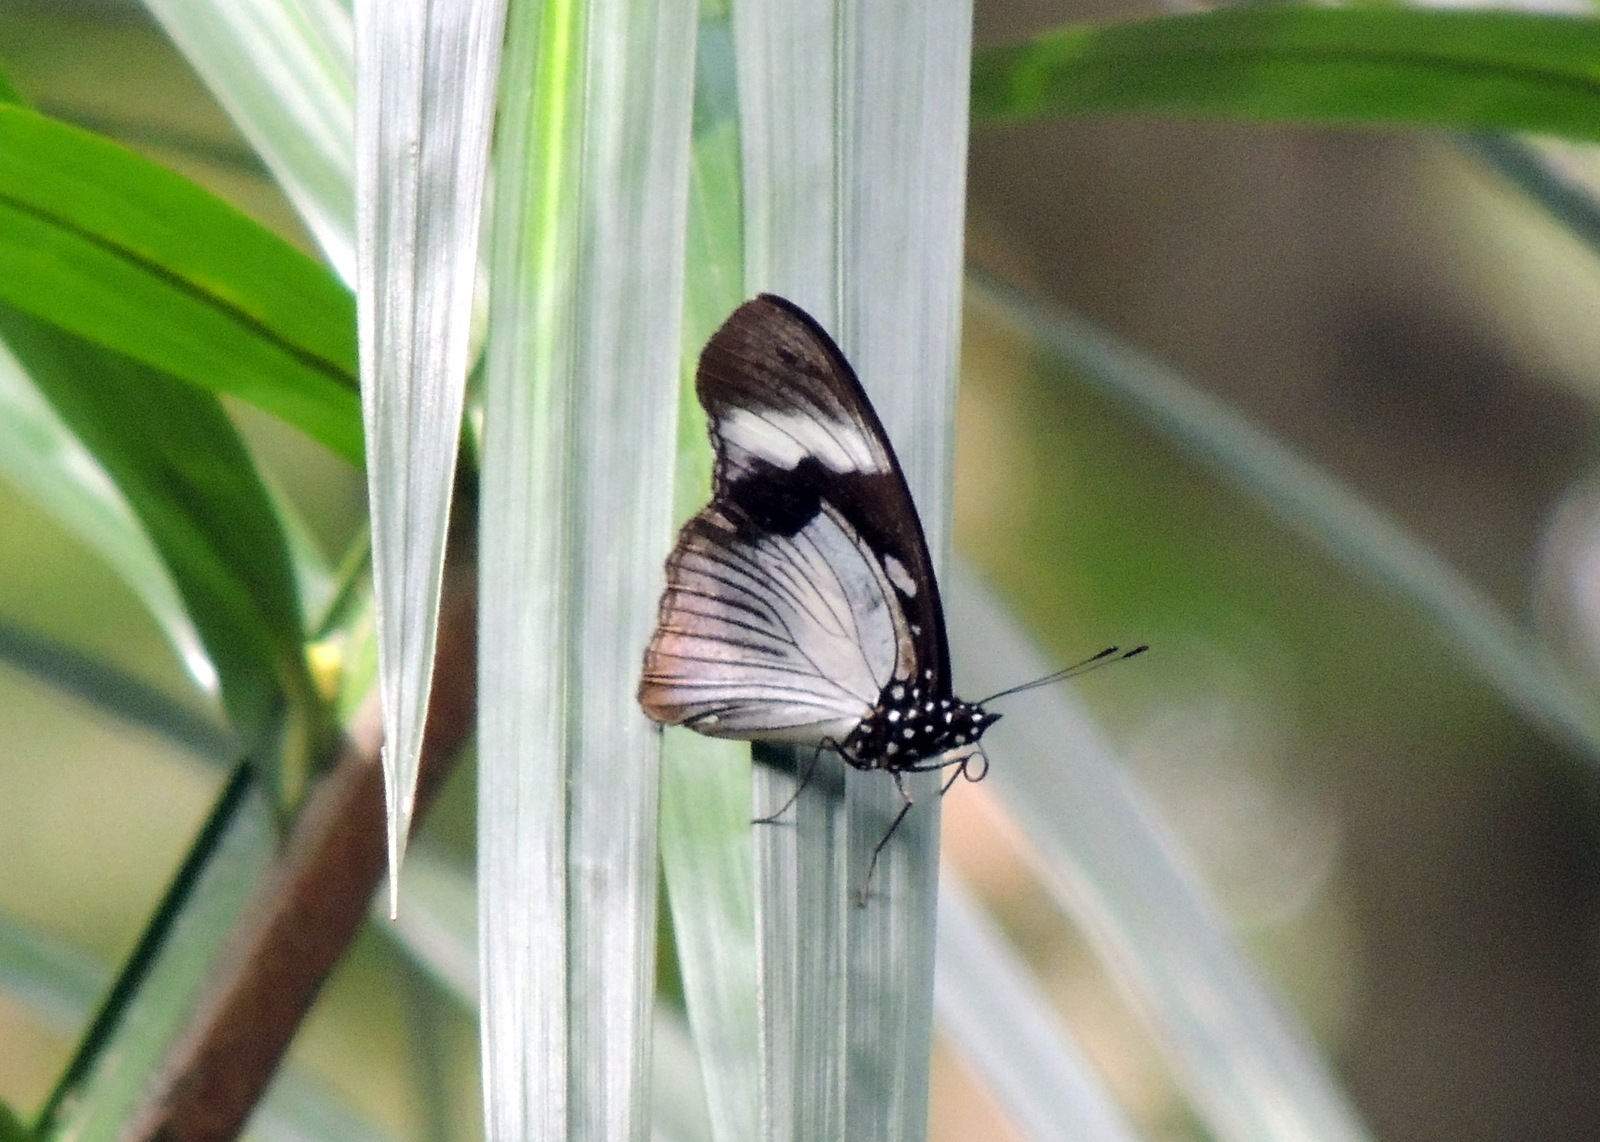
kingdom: Animalia
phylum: Arthropoda
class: Insecta
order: Lepidoptera
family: Nymphalidae
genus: Hypolimnas
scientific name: Hypolimnas dubius
